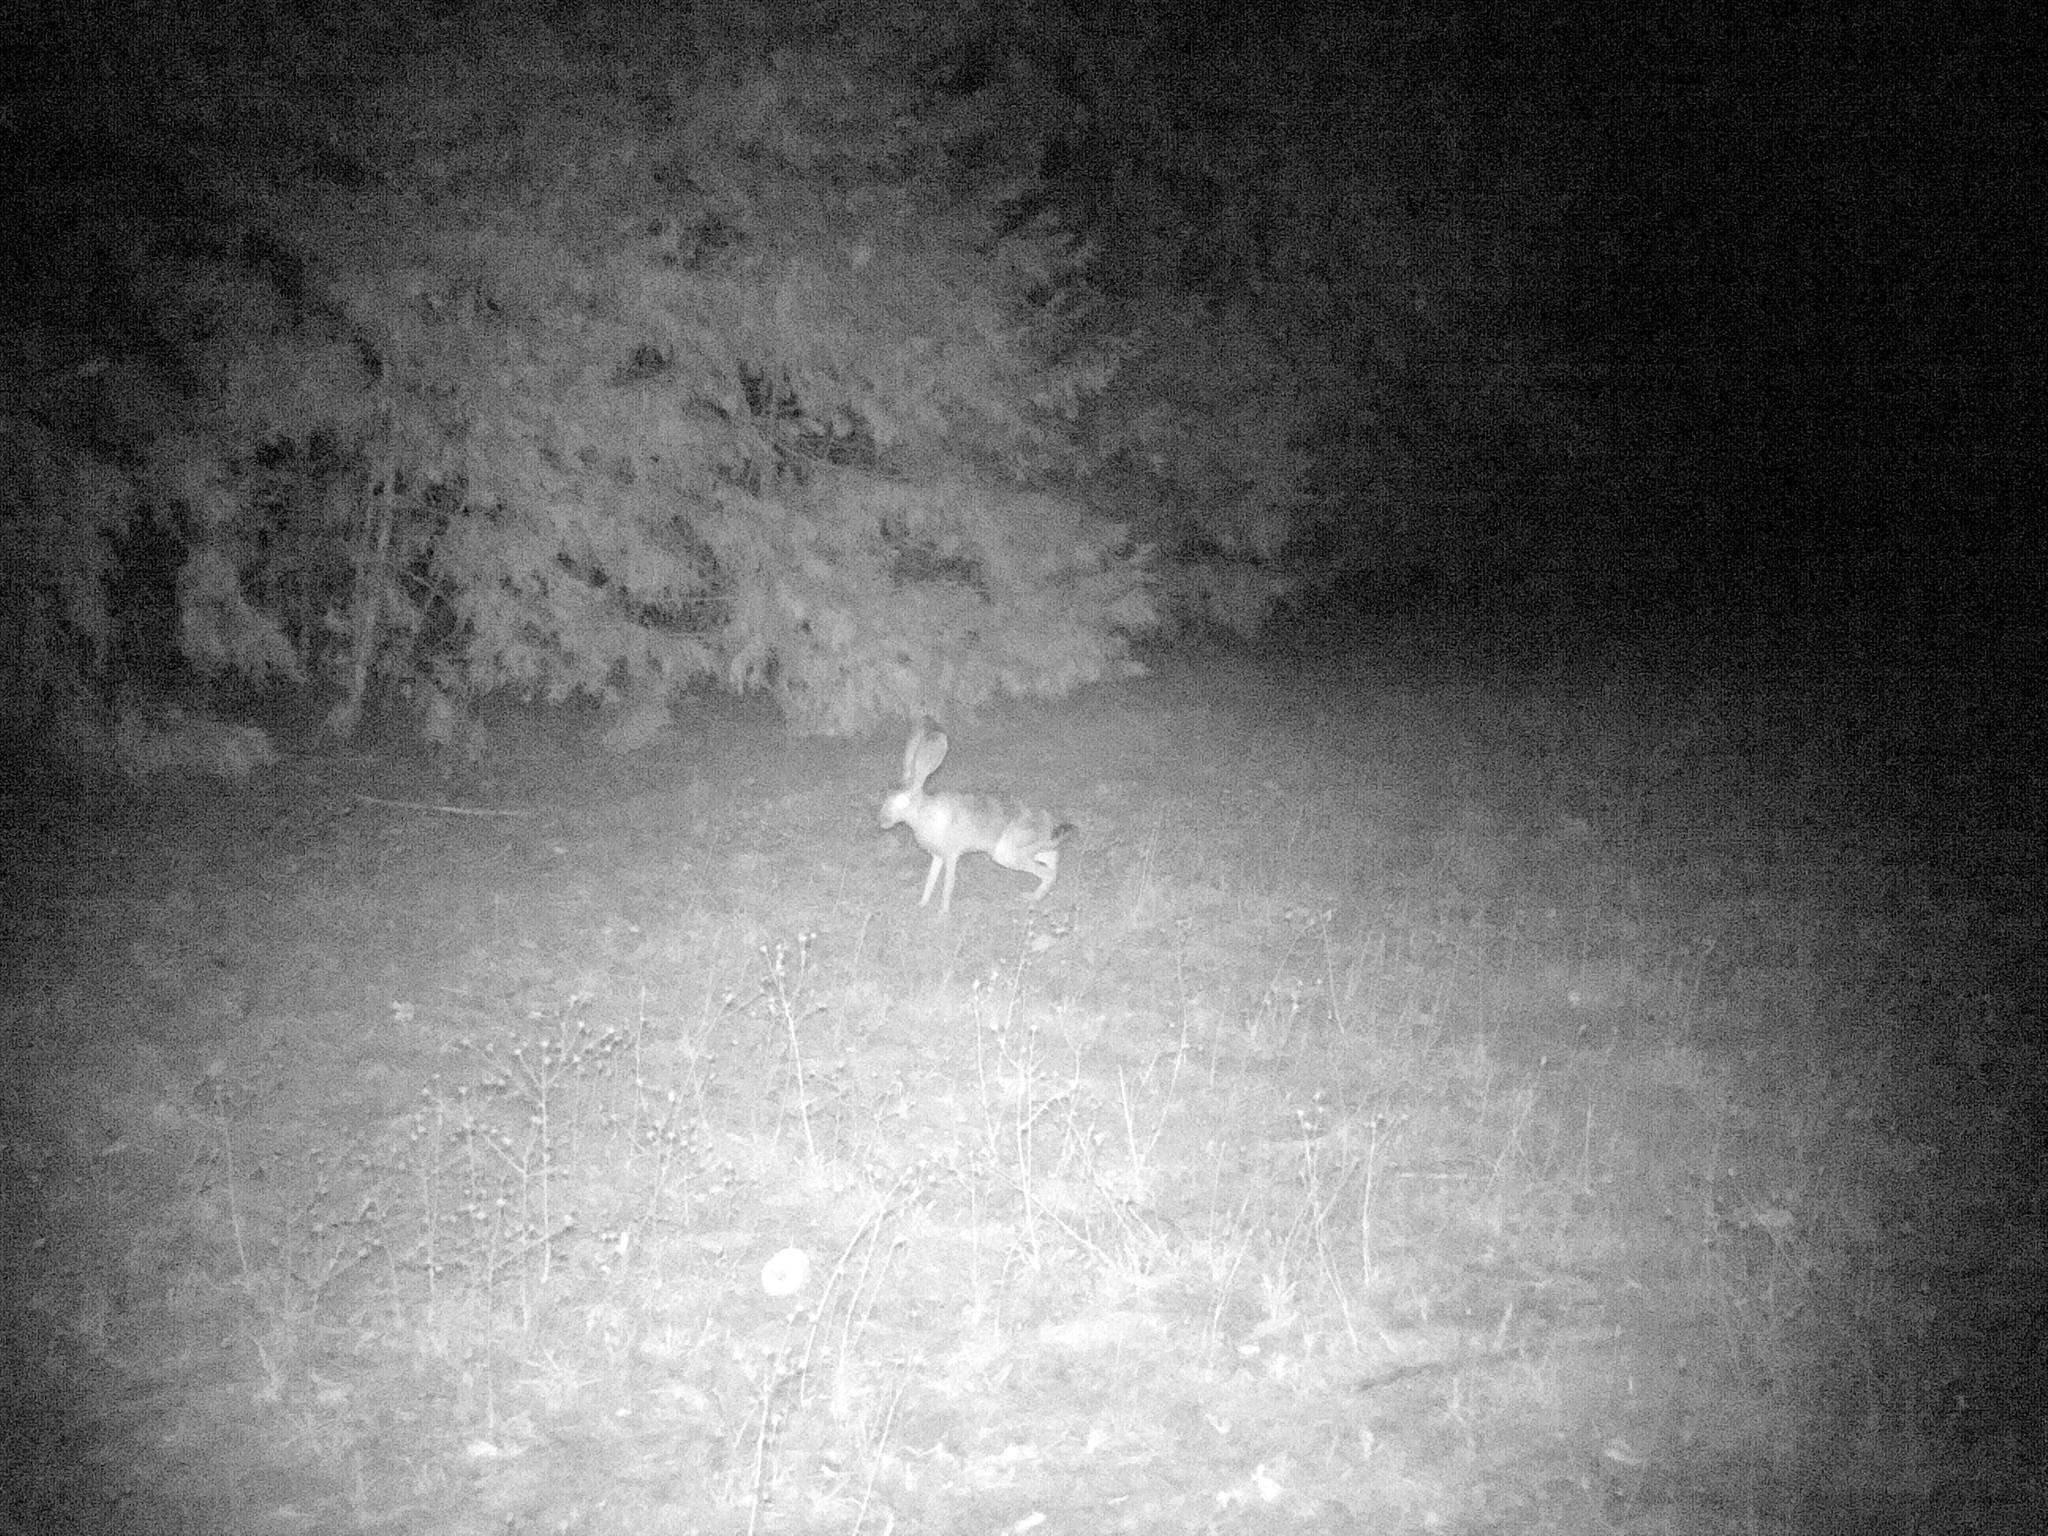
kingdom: Animalia
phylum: Chordata
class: Mammalia
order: Lagomorpha
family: Leporidae
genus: Lepus
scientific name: Lepus californicus
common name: Black-tailed jackrabbit
